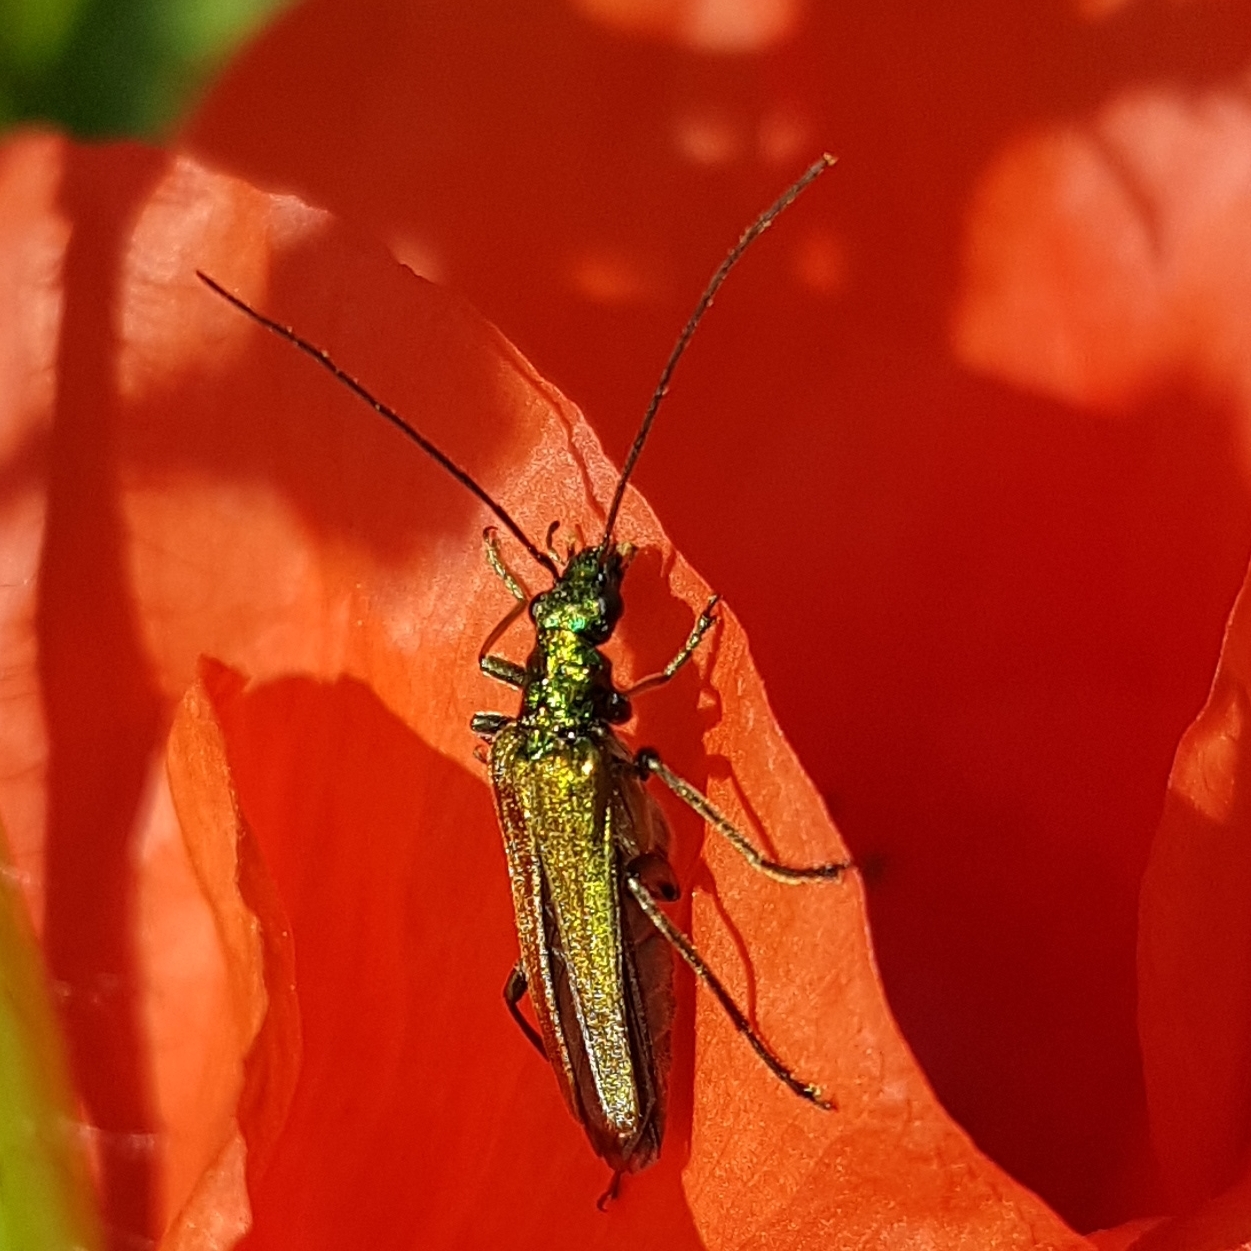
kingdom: Animalia
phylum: Arthropoda
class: Insecta
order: Coleoptera
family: Oedemeridae
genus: Oedemera
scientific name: Oedemera nobilis
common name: Swollen-thighed beetle
